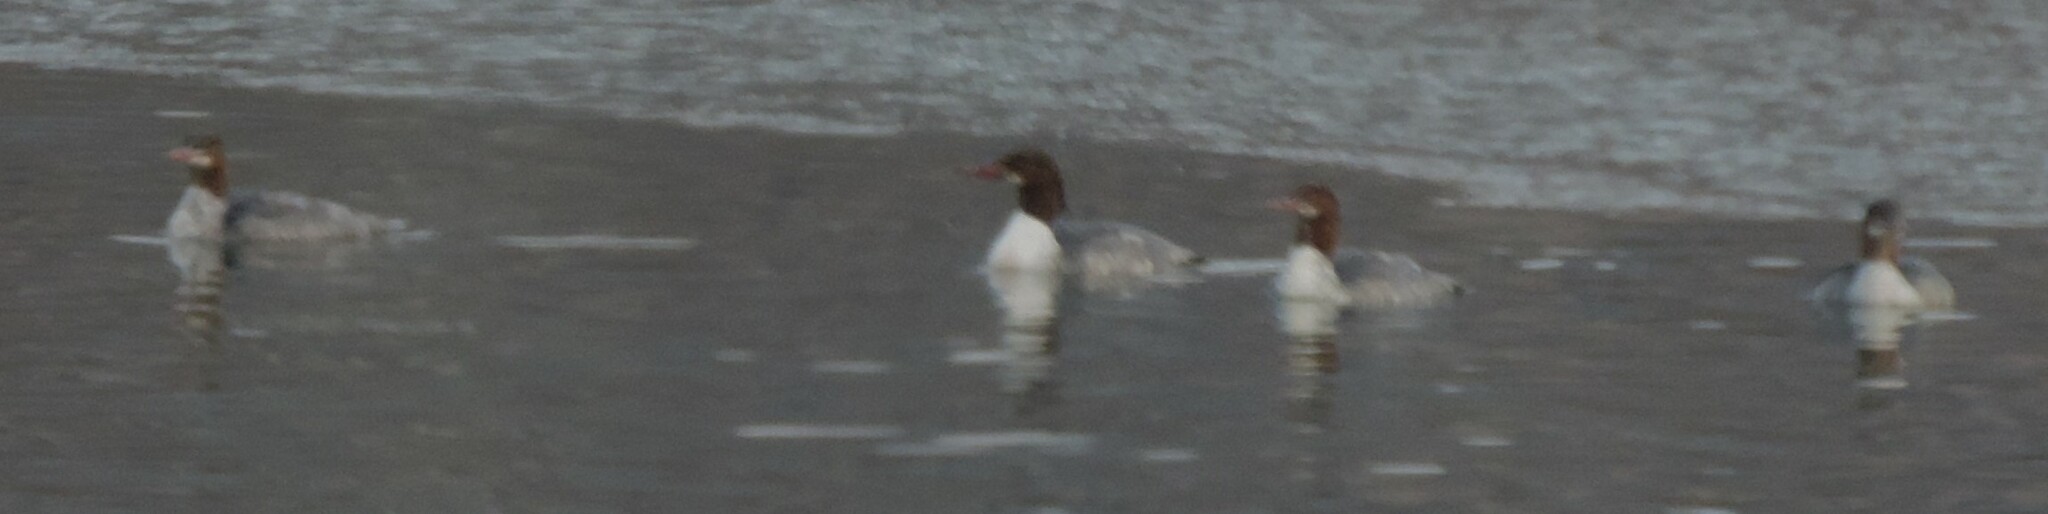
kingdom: Animalia
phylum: Chordata
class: Aves
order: Anseriformes
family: Anatidae
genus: Mergus
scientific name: Mergus merganser
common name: Common merganser
